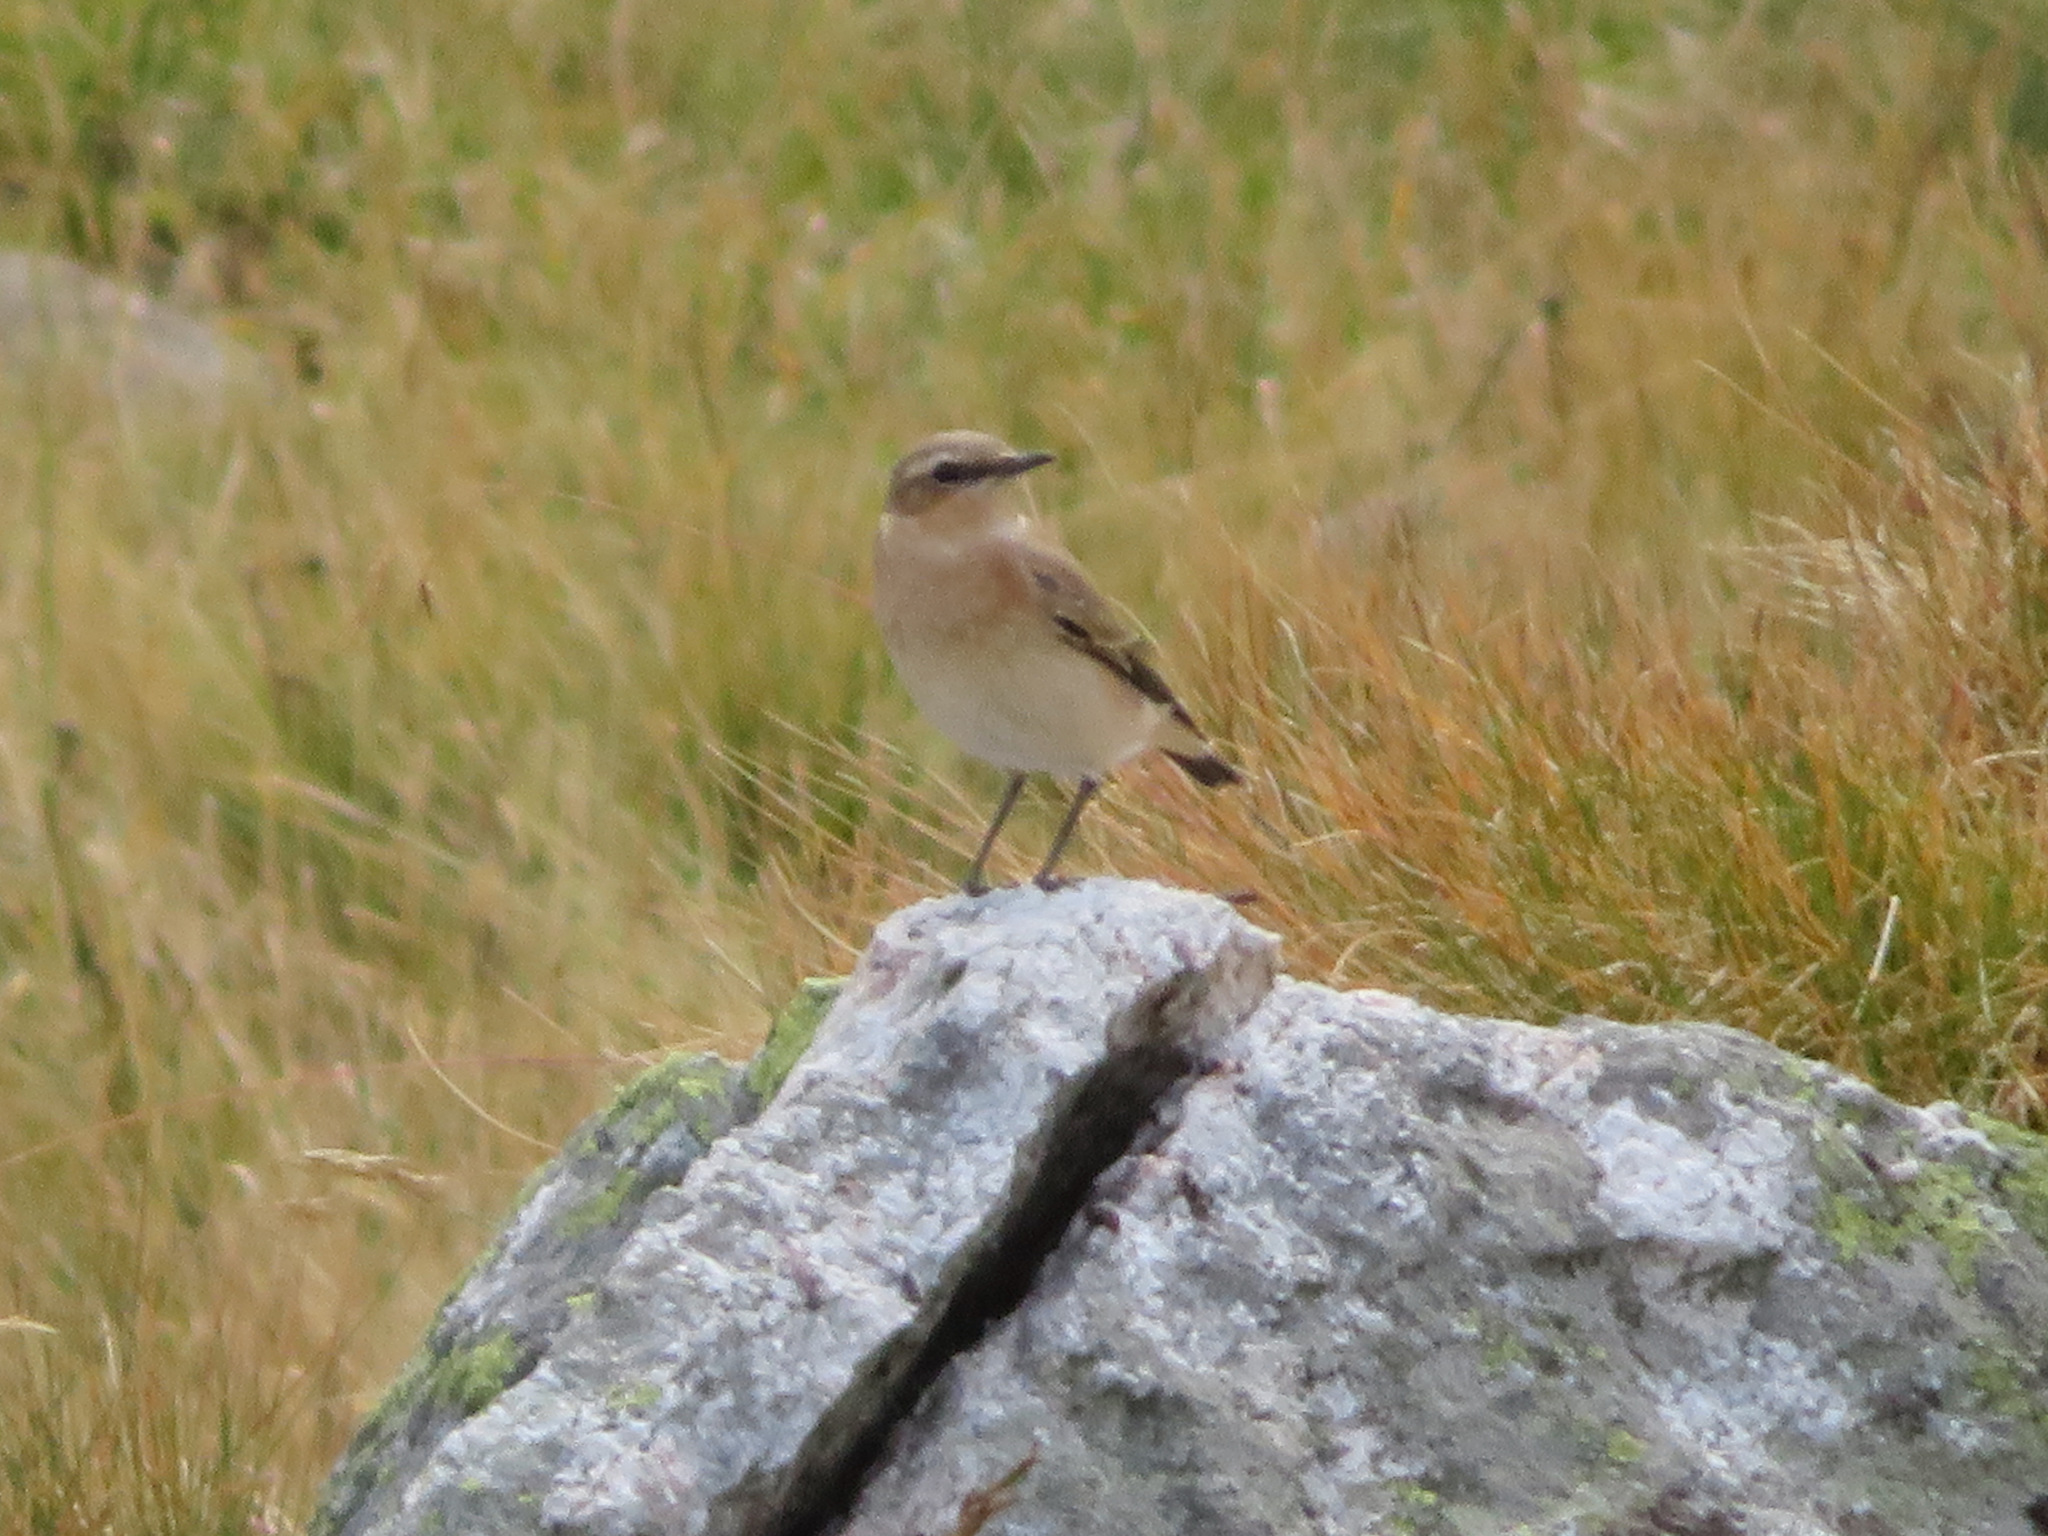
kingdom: Animalia
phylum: Chordata
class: Aves
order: Passeriformes
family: Muscicapidae
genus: Oenanthe
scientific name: Oenanthe oenanthe
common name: Northern wheatear
